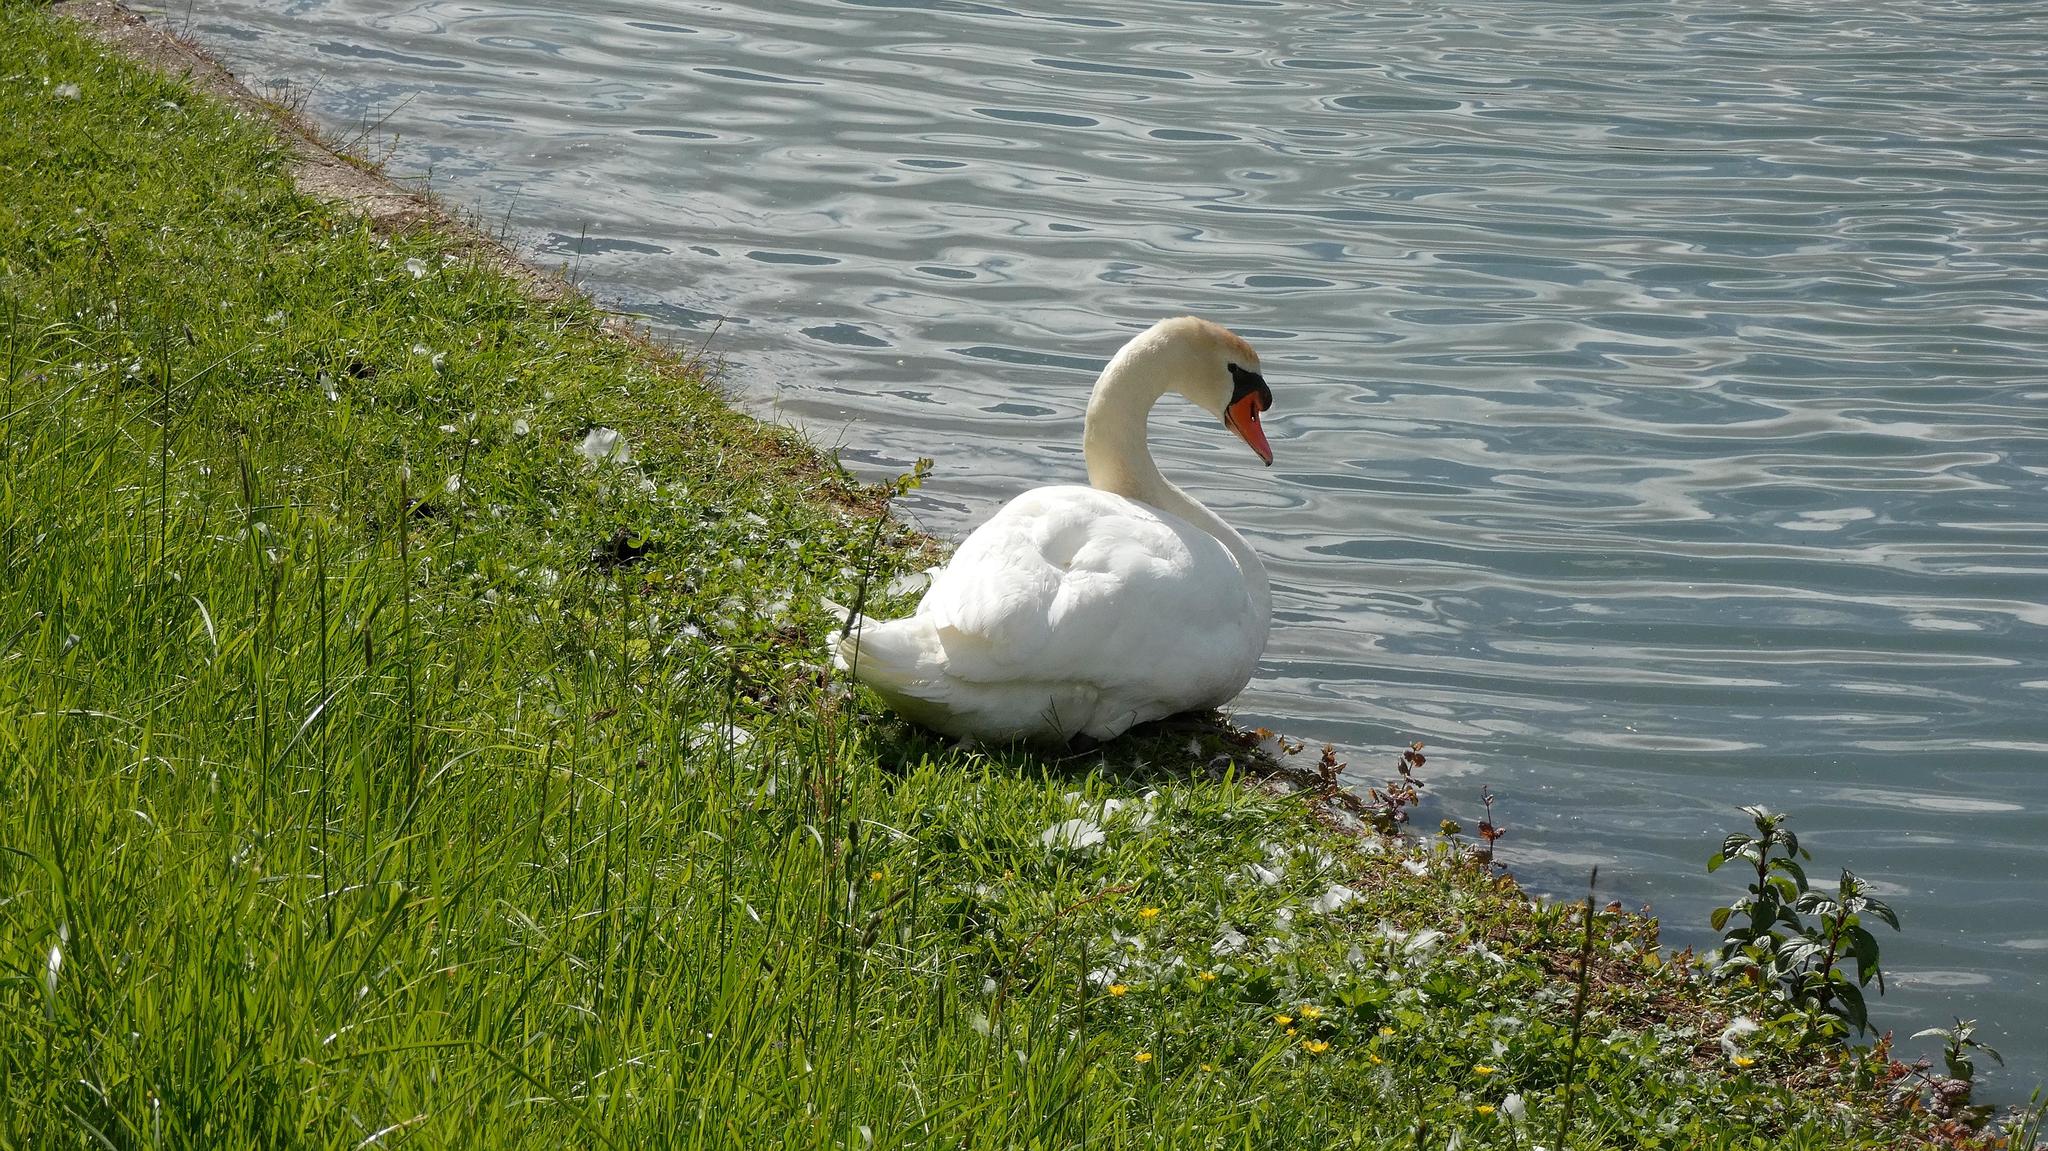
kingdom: Animalia
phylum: Chordata
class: Aves
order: Anseriformes
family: Anatidae
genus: Cygnus
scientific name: Cygnus olor
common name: Mute swan
